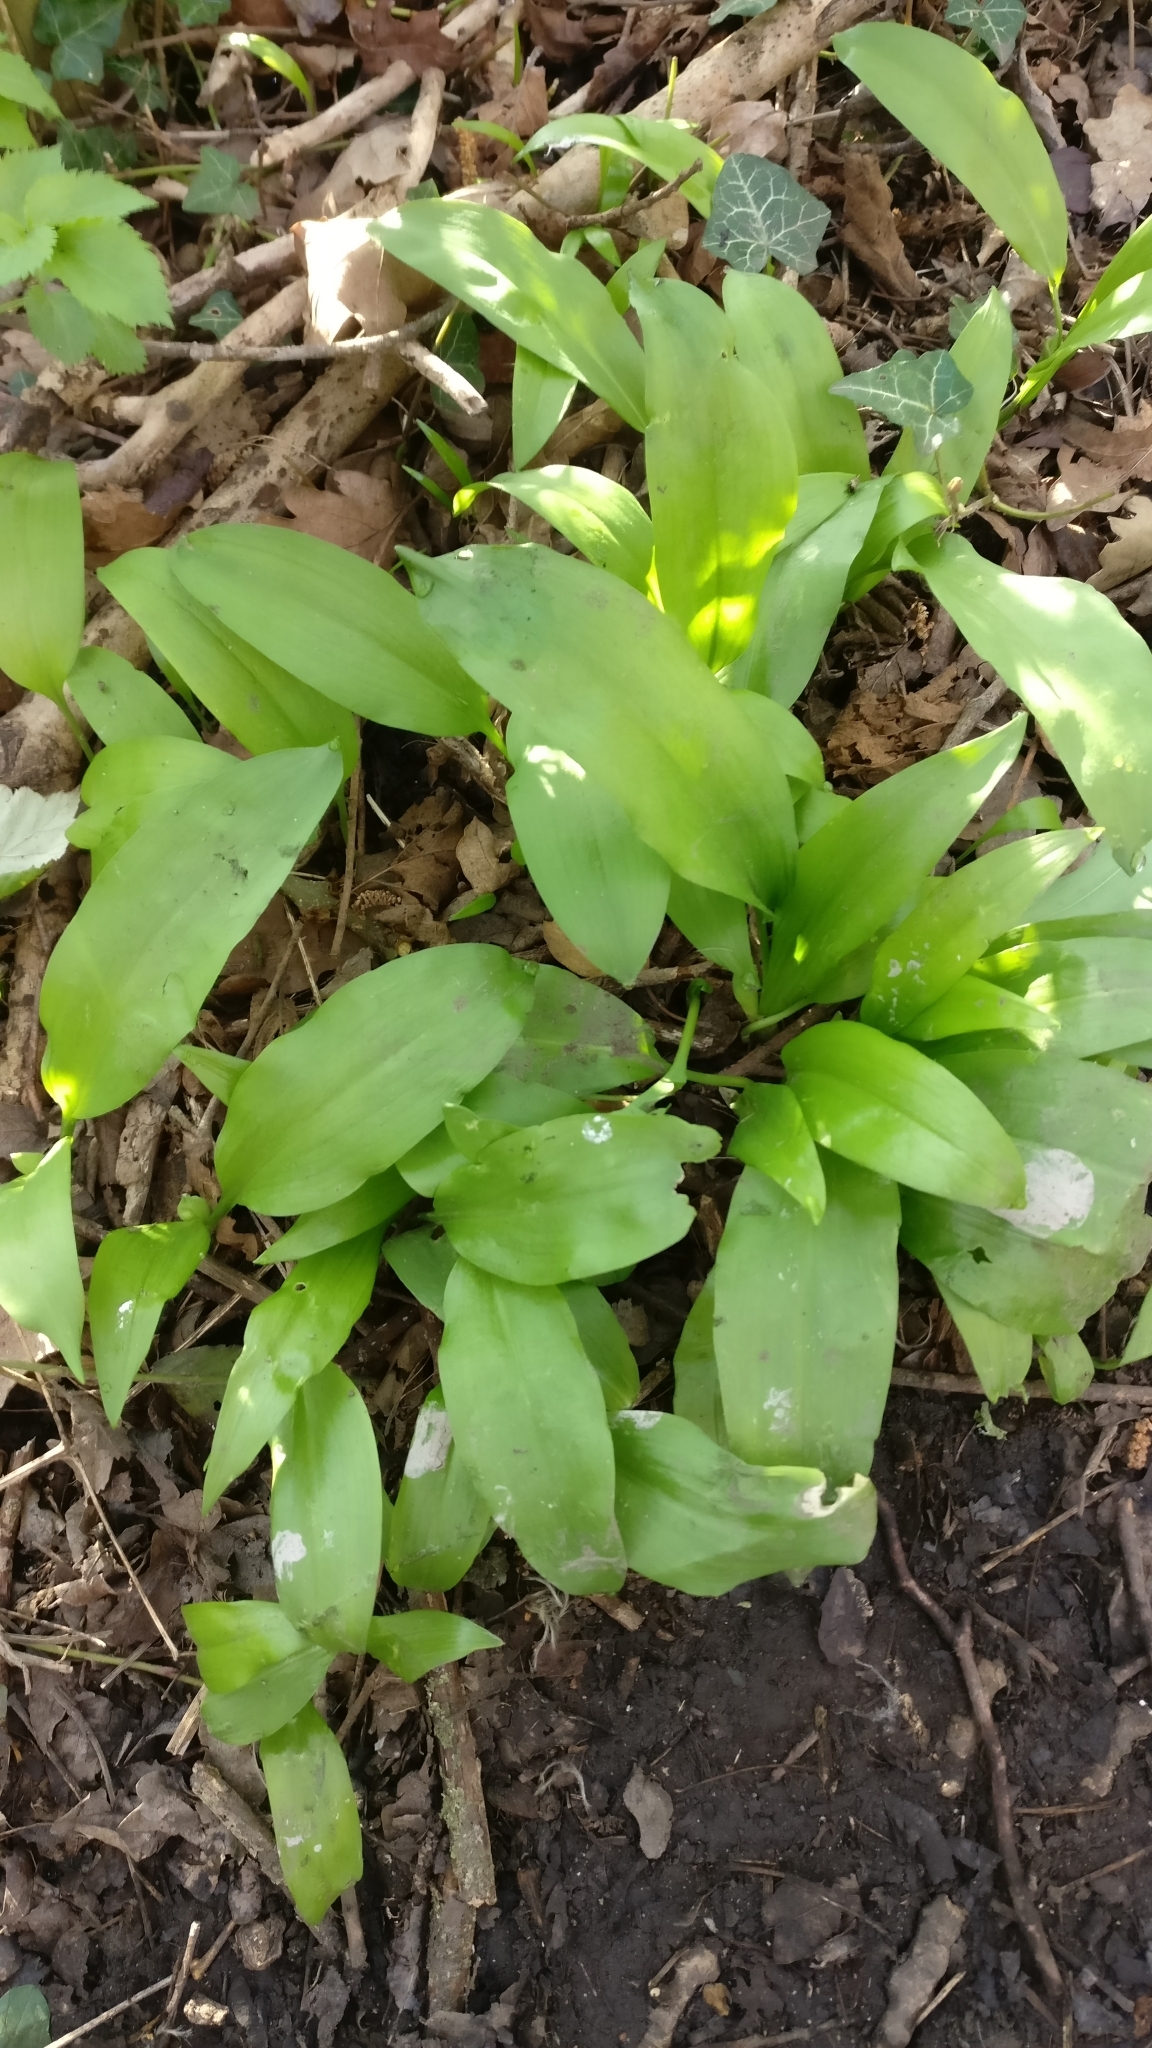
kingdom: Plantae
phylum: Tracheophyta
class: Liliopsida
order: Asparagales
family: Amaryllidaceae
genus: Allium
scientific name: Allium ursinum
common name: Ramsons
